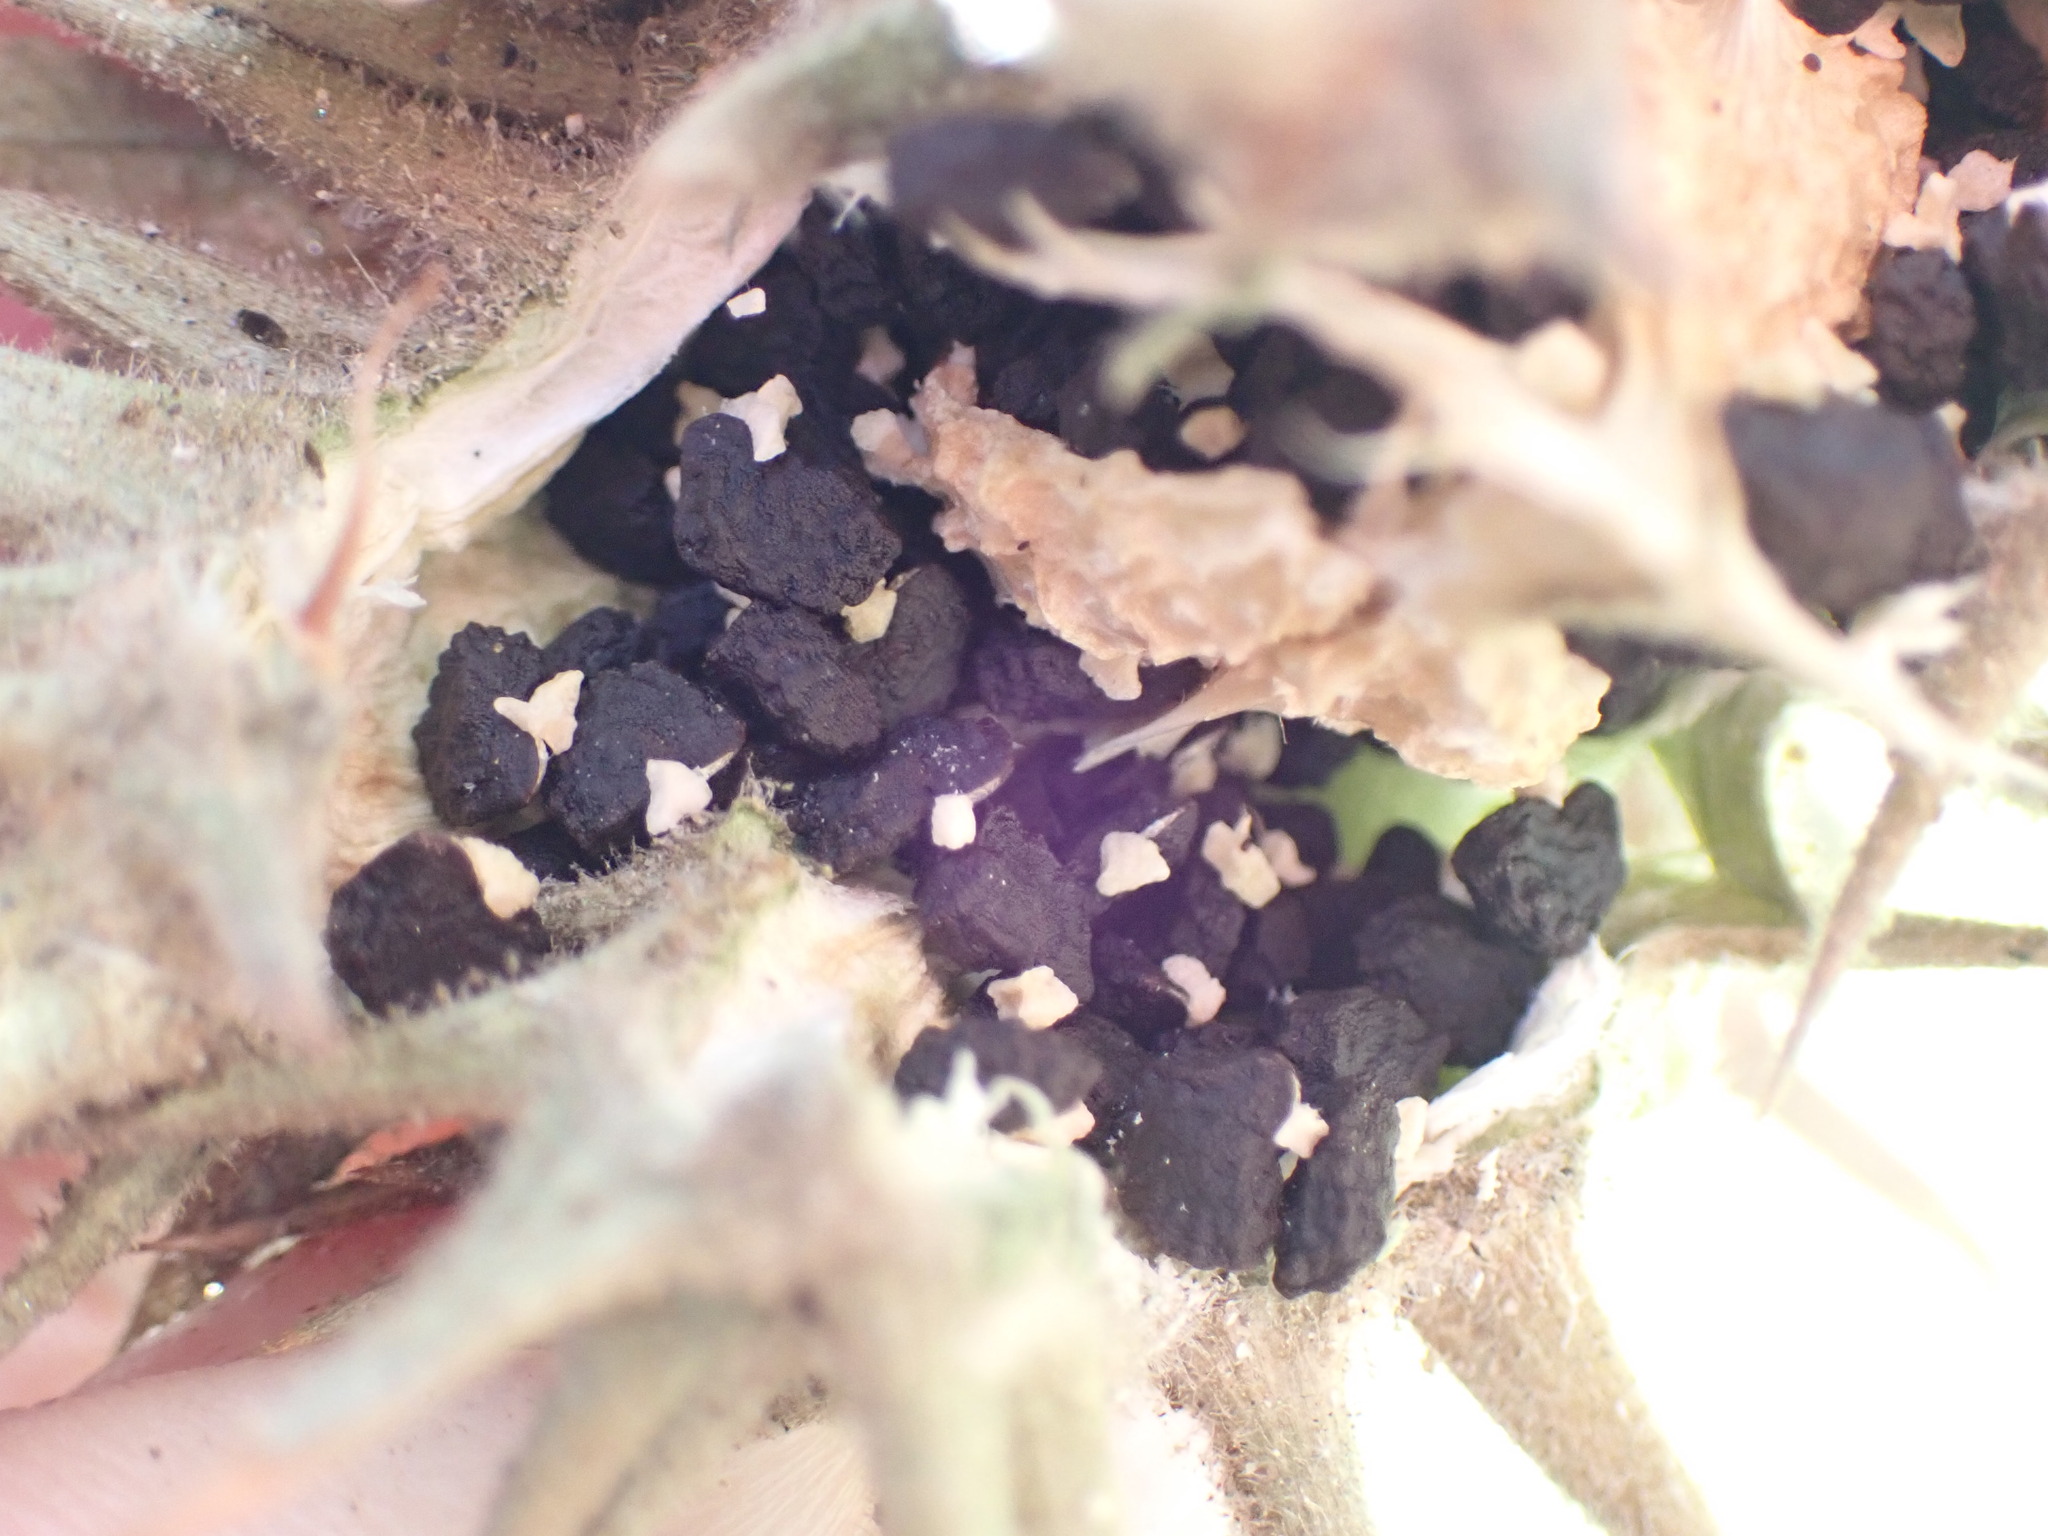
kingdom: Plantae
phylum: Tracheophyta
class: Magnoliopsida
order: Solanales
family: Solanaceae
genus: Datura
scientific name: Datura discolor
